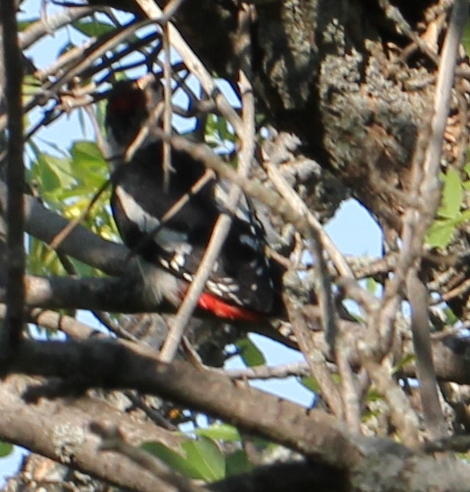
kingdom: Animalia
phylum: Chordata
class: Aves
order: Piciformes
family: Picidae
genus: Dendrocopos
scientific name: Dendrocopos major
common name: Great spotted woodpecker
